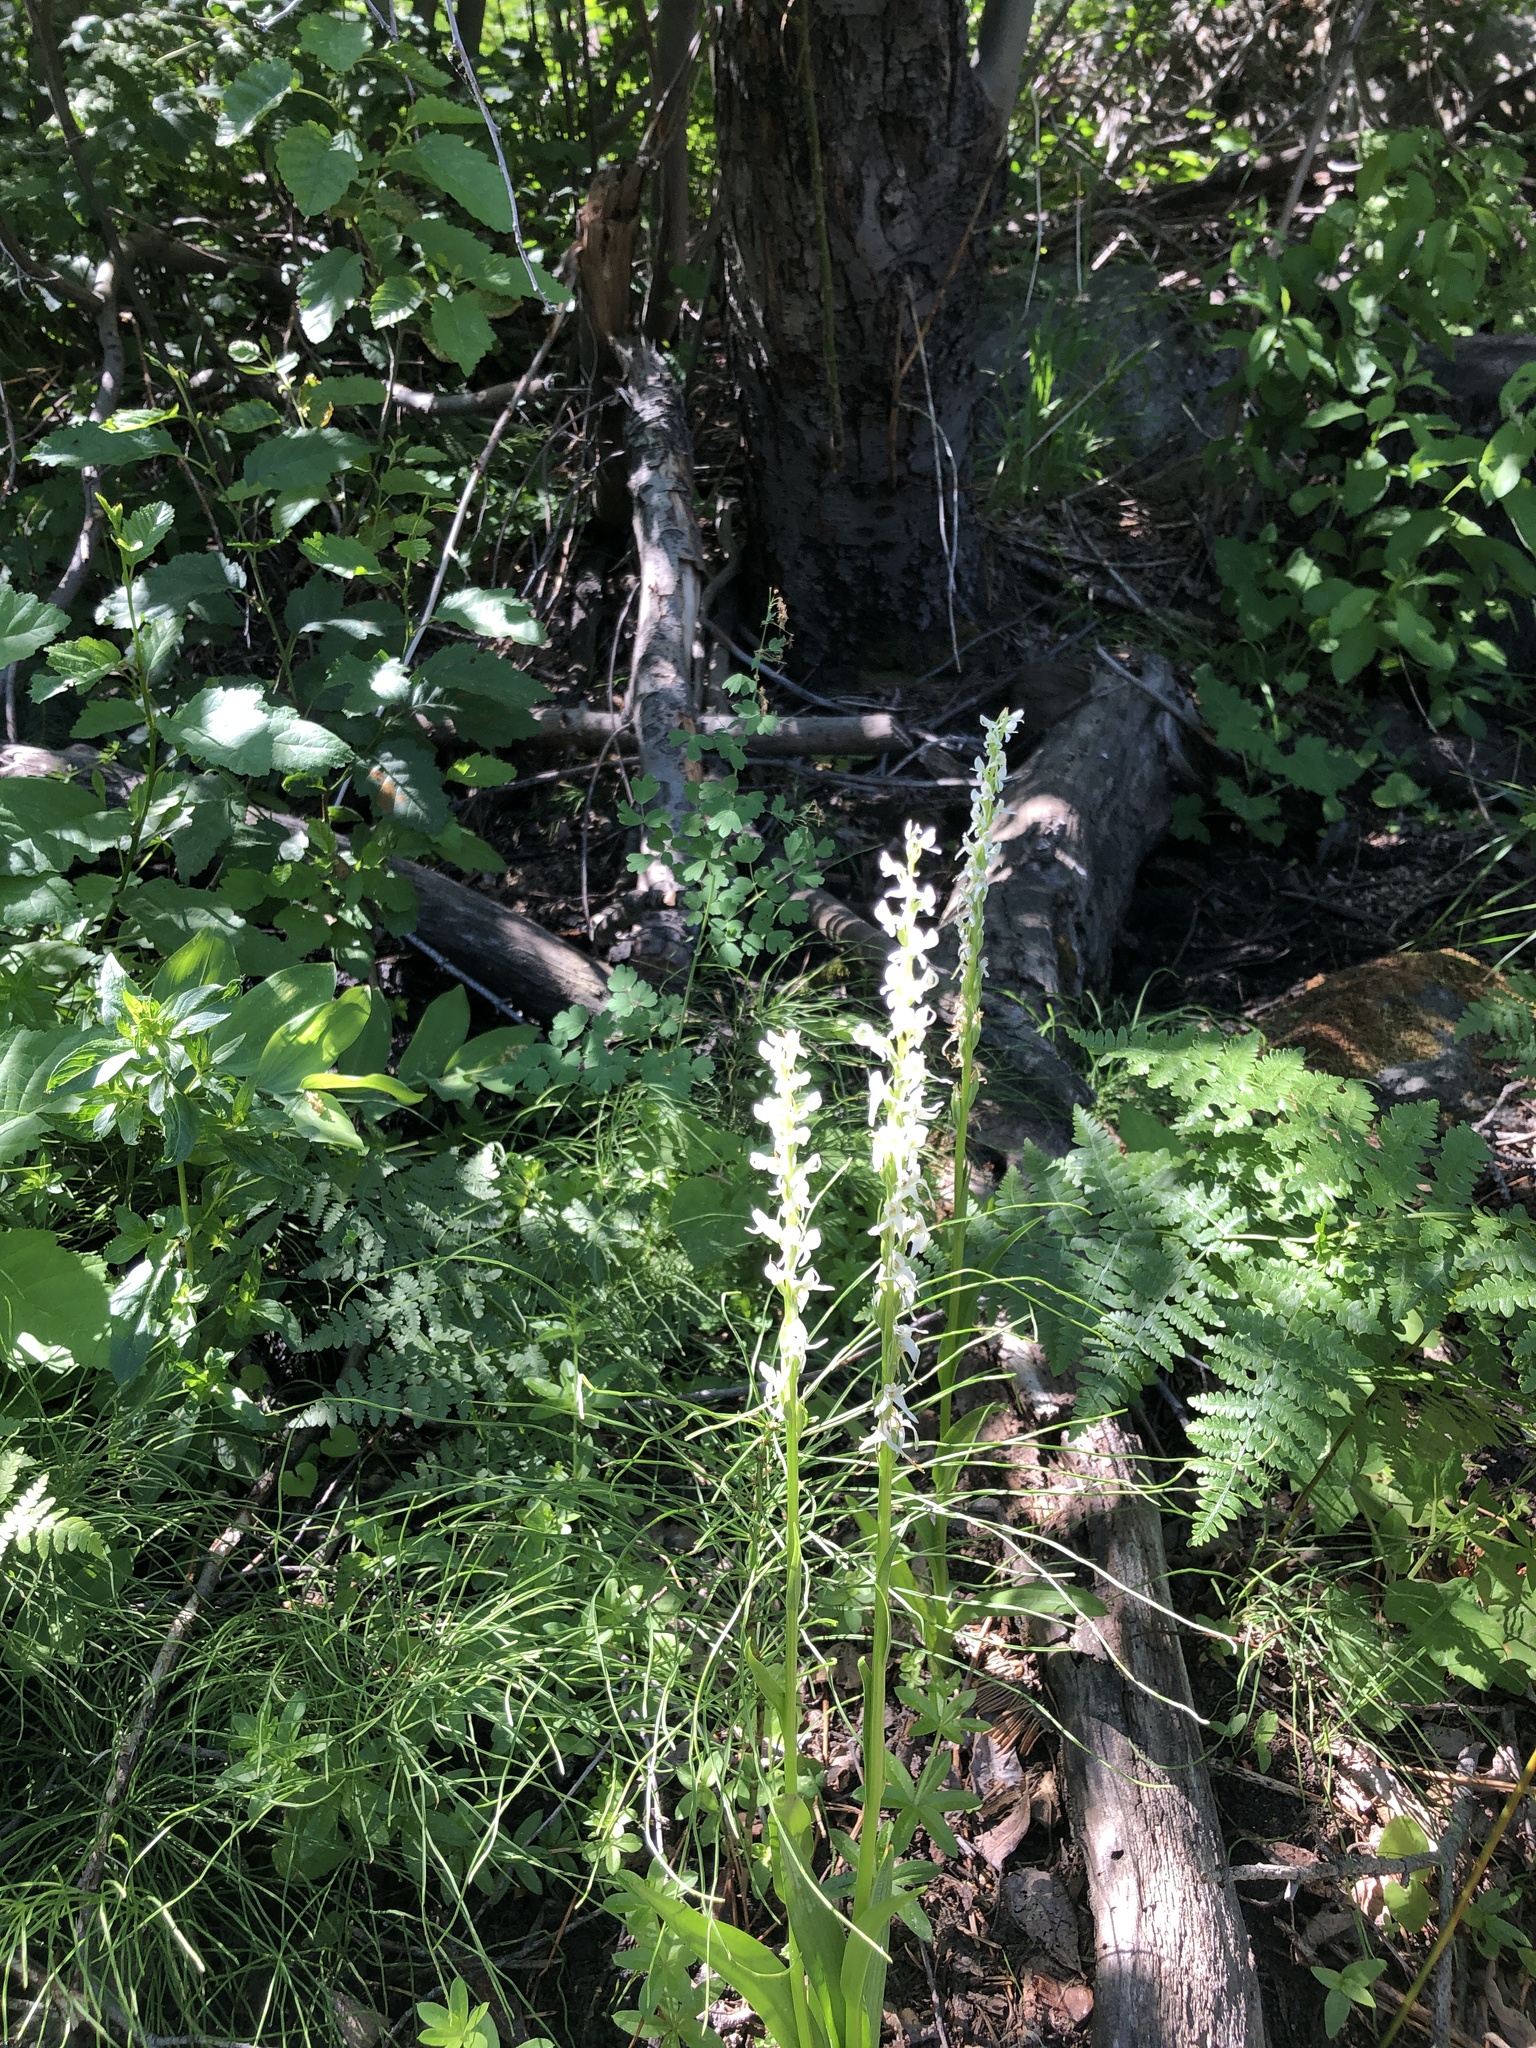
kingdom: Plantae
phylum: Tracheophyta
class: Liliopsida
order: Asparagales
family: Orchidaceae
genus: Platanthera
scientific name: Platanthera dilatata
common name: Bog candles
